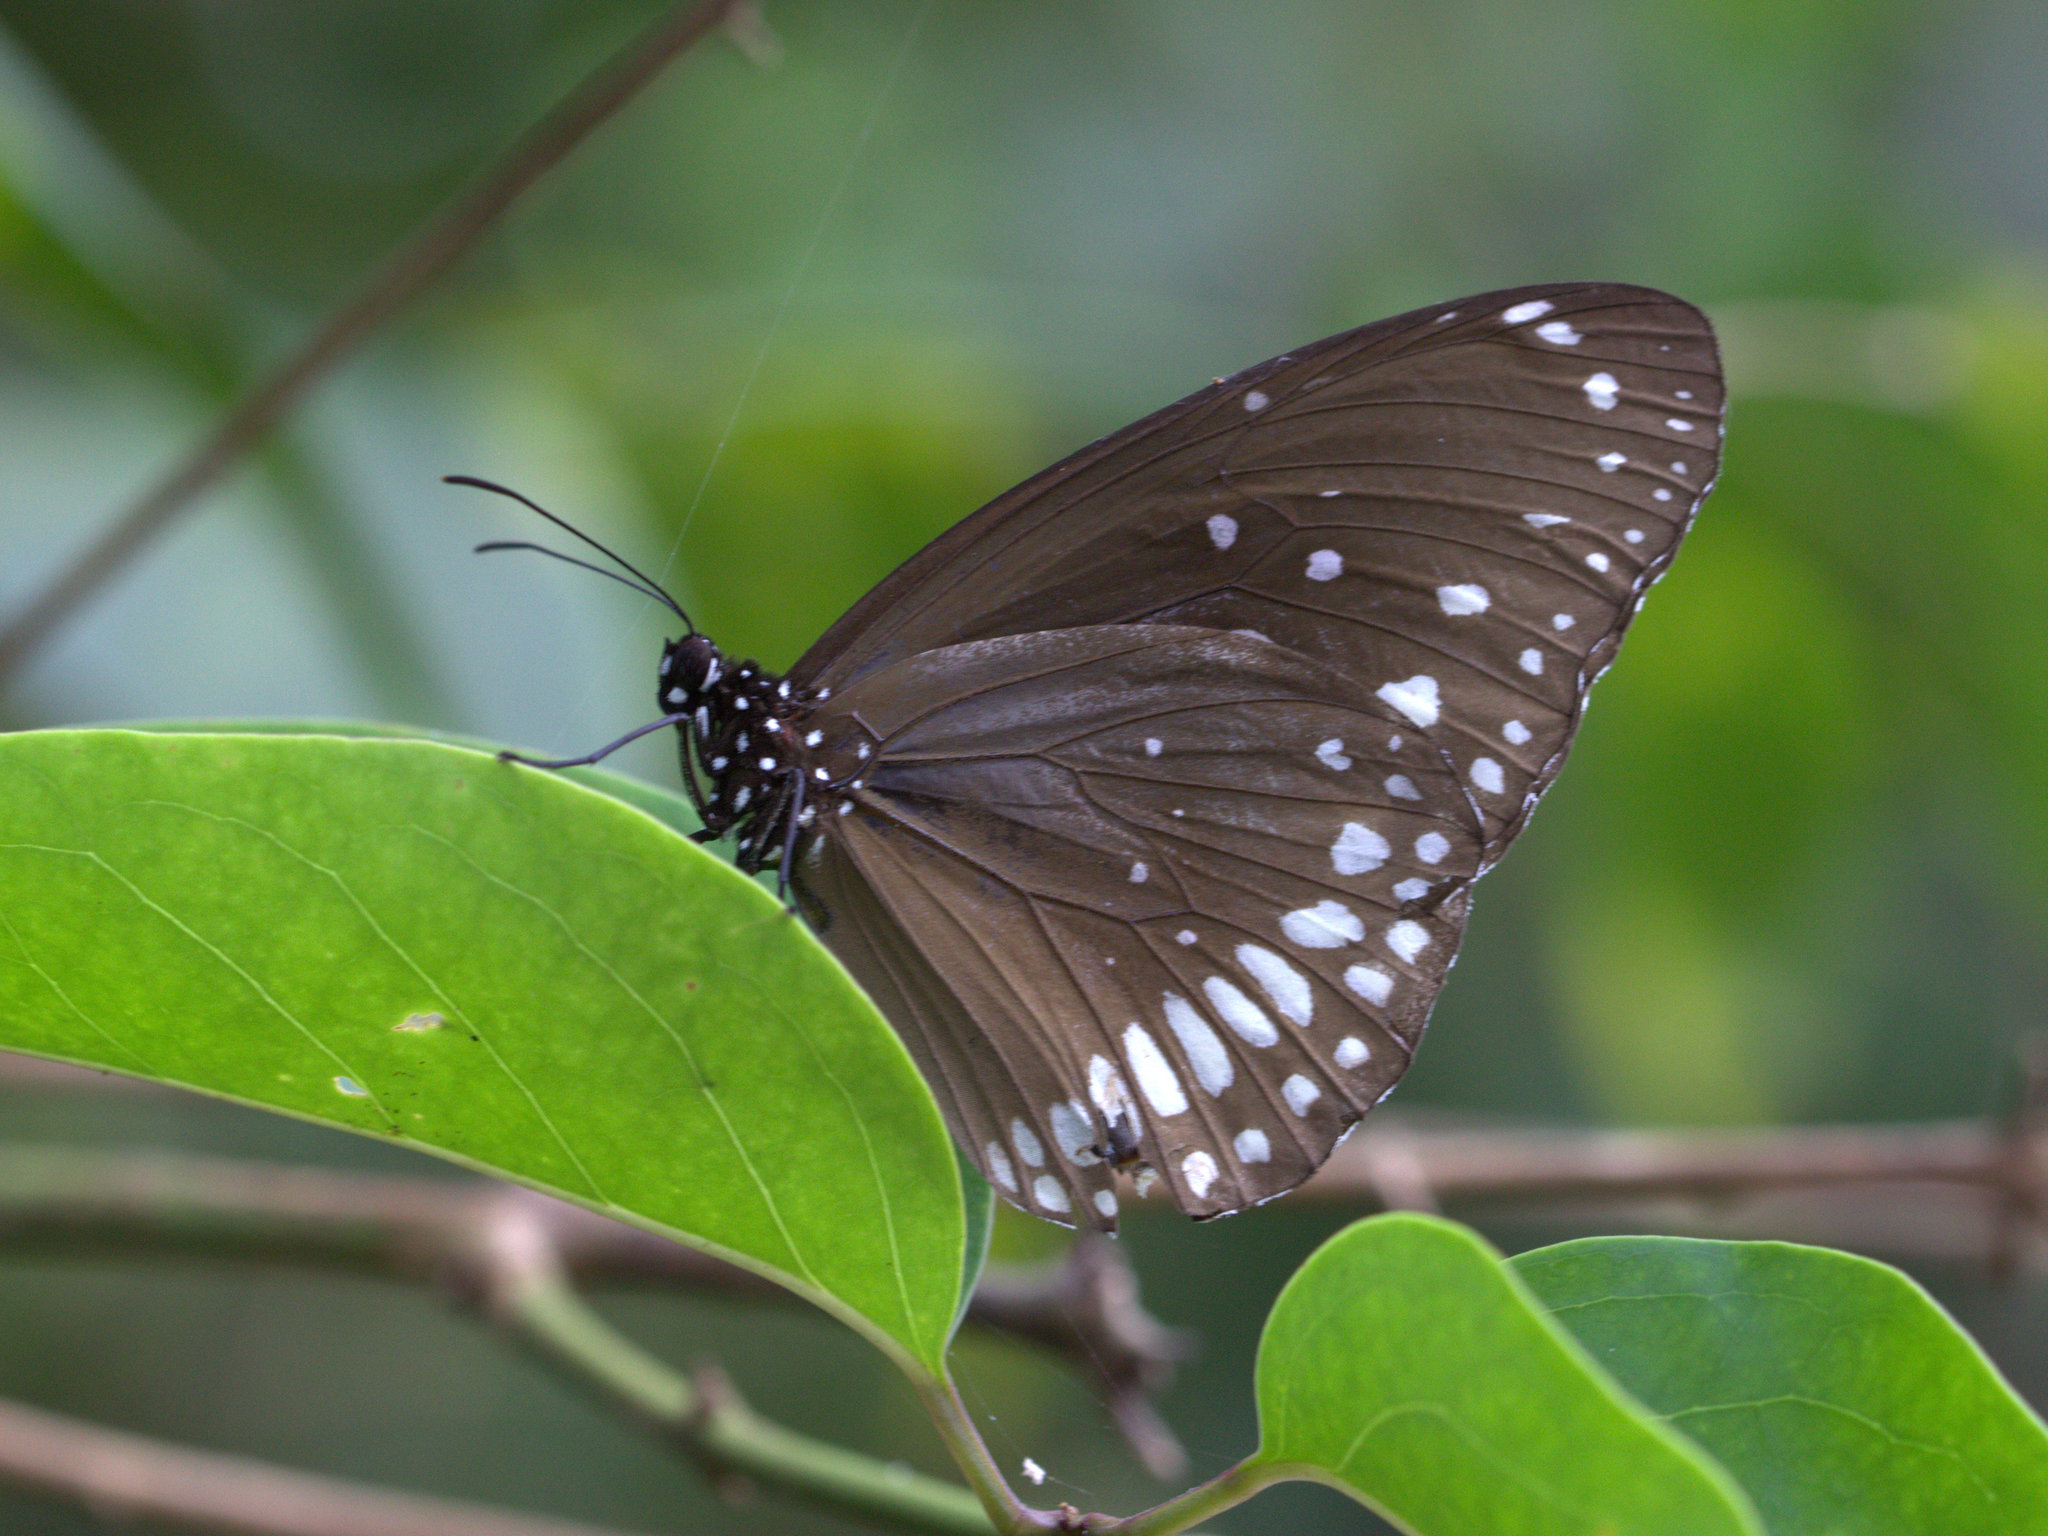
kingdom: Animalia
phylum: Arthropoda
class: Insecta
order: Lepidoptera
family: Nymphalidae
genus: Euploea
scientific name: Euploea core
